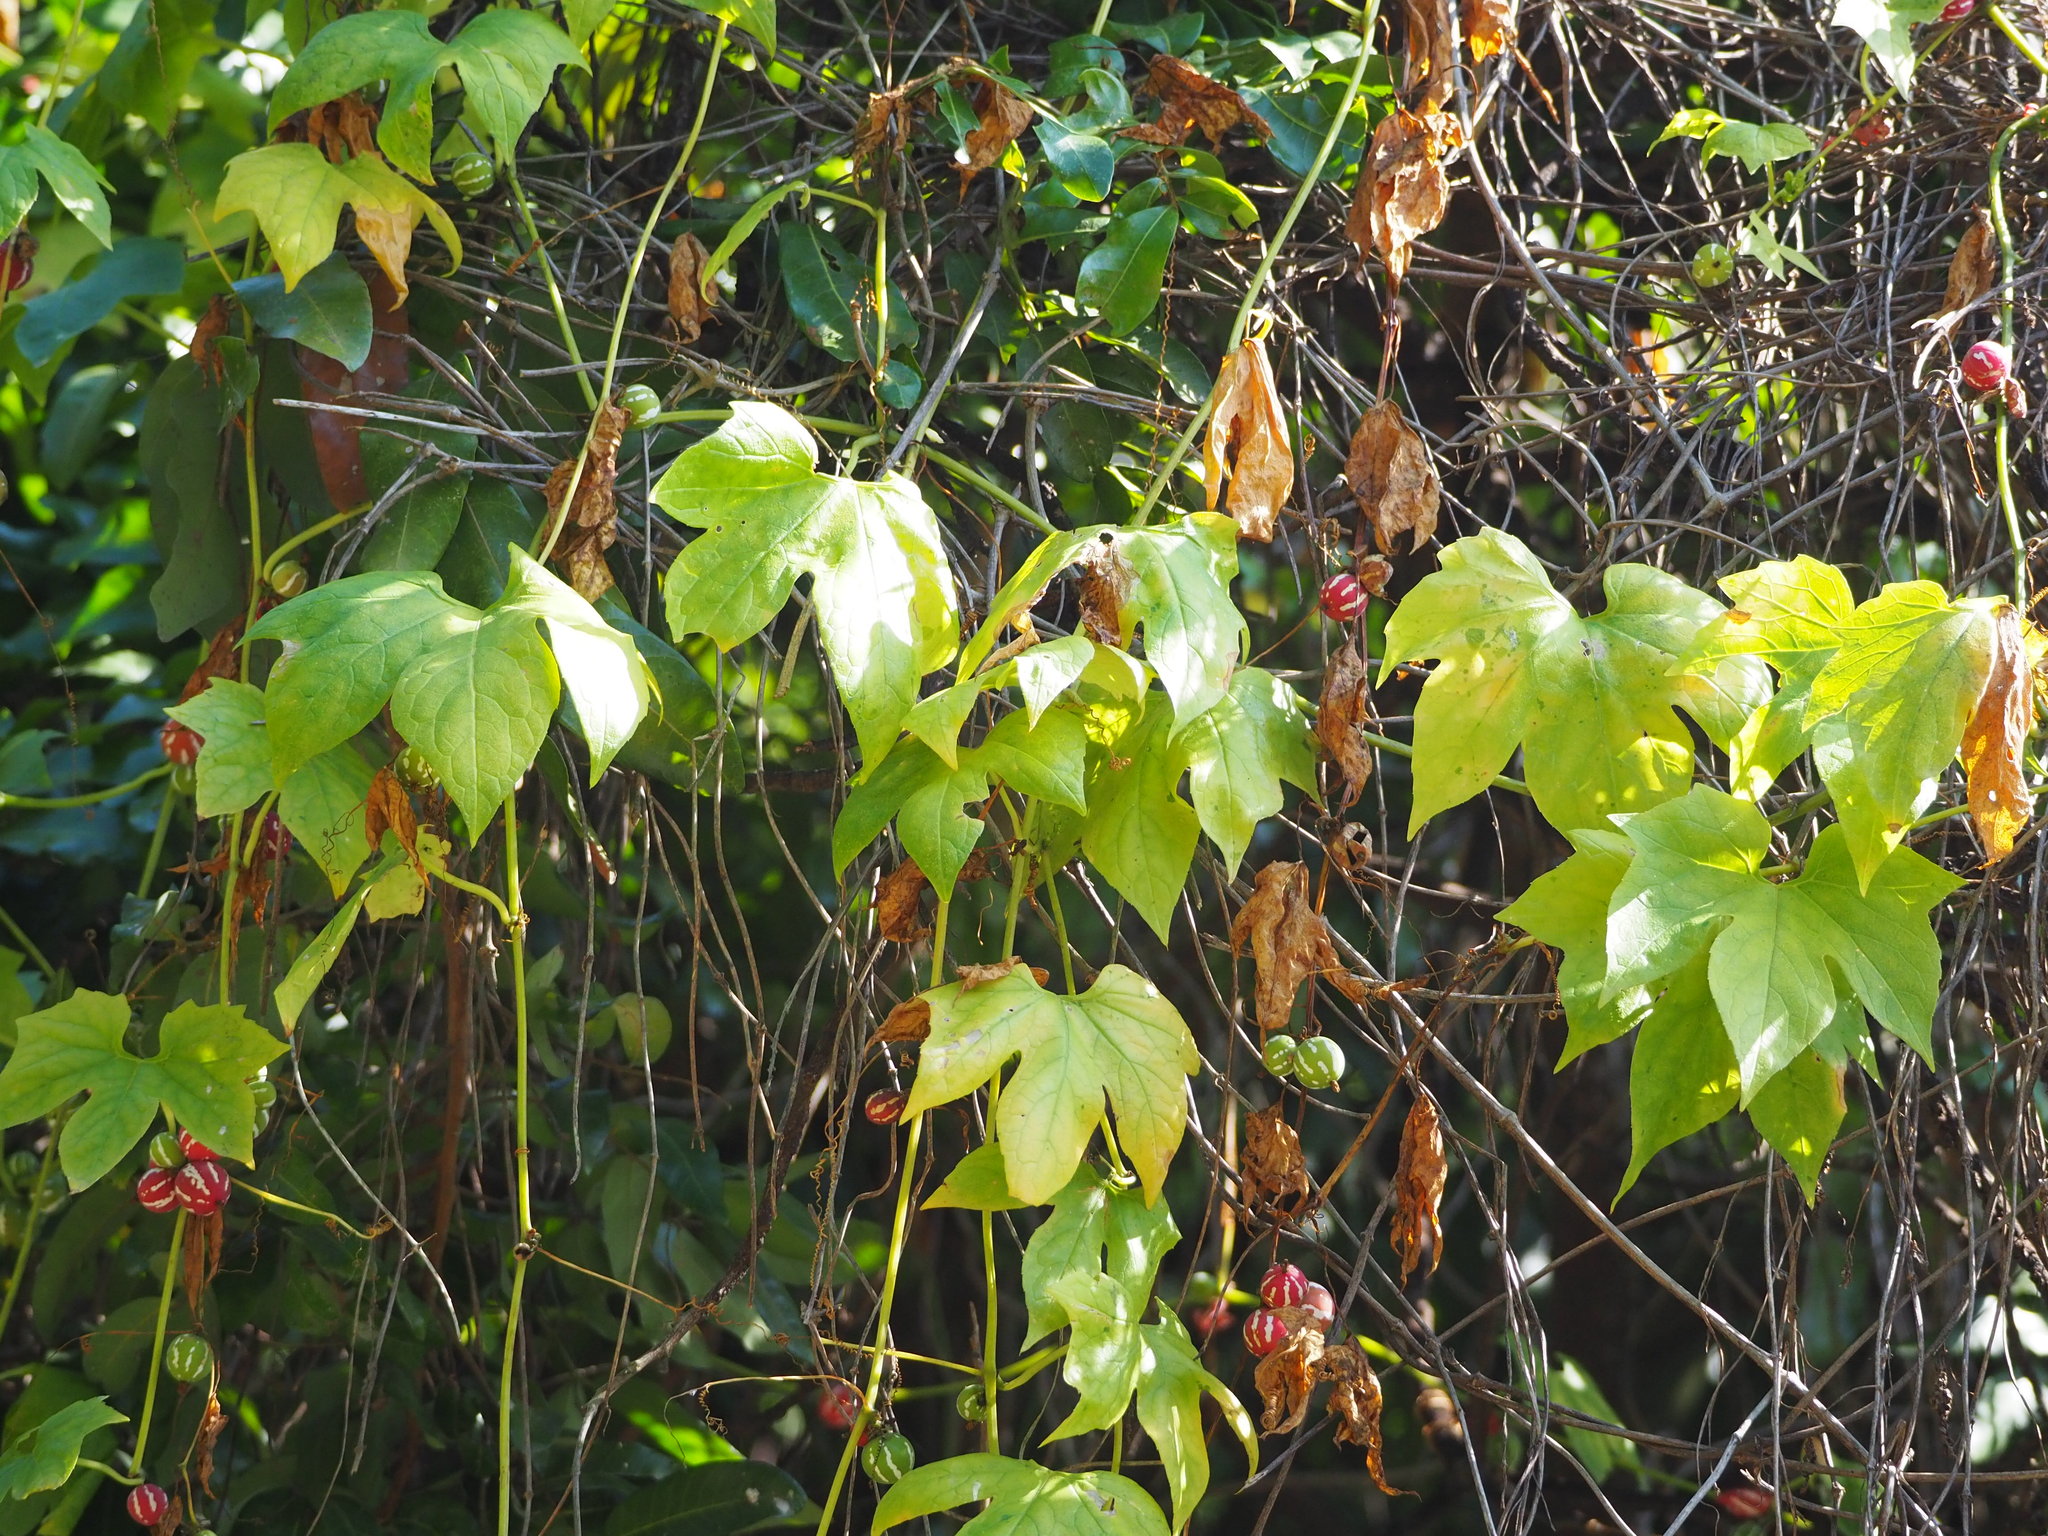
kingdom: Plantae
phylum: Tracheophyta
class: Magnoliopsida
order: Cucurbitales
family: Cucurbitaceae
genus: Diplocyclos
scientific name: Diplocyclos palmatus
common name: Striped-cucumber
